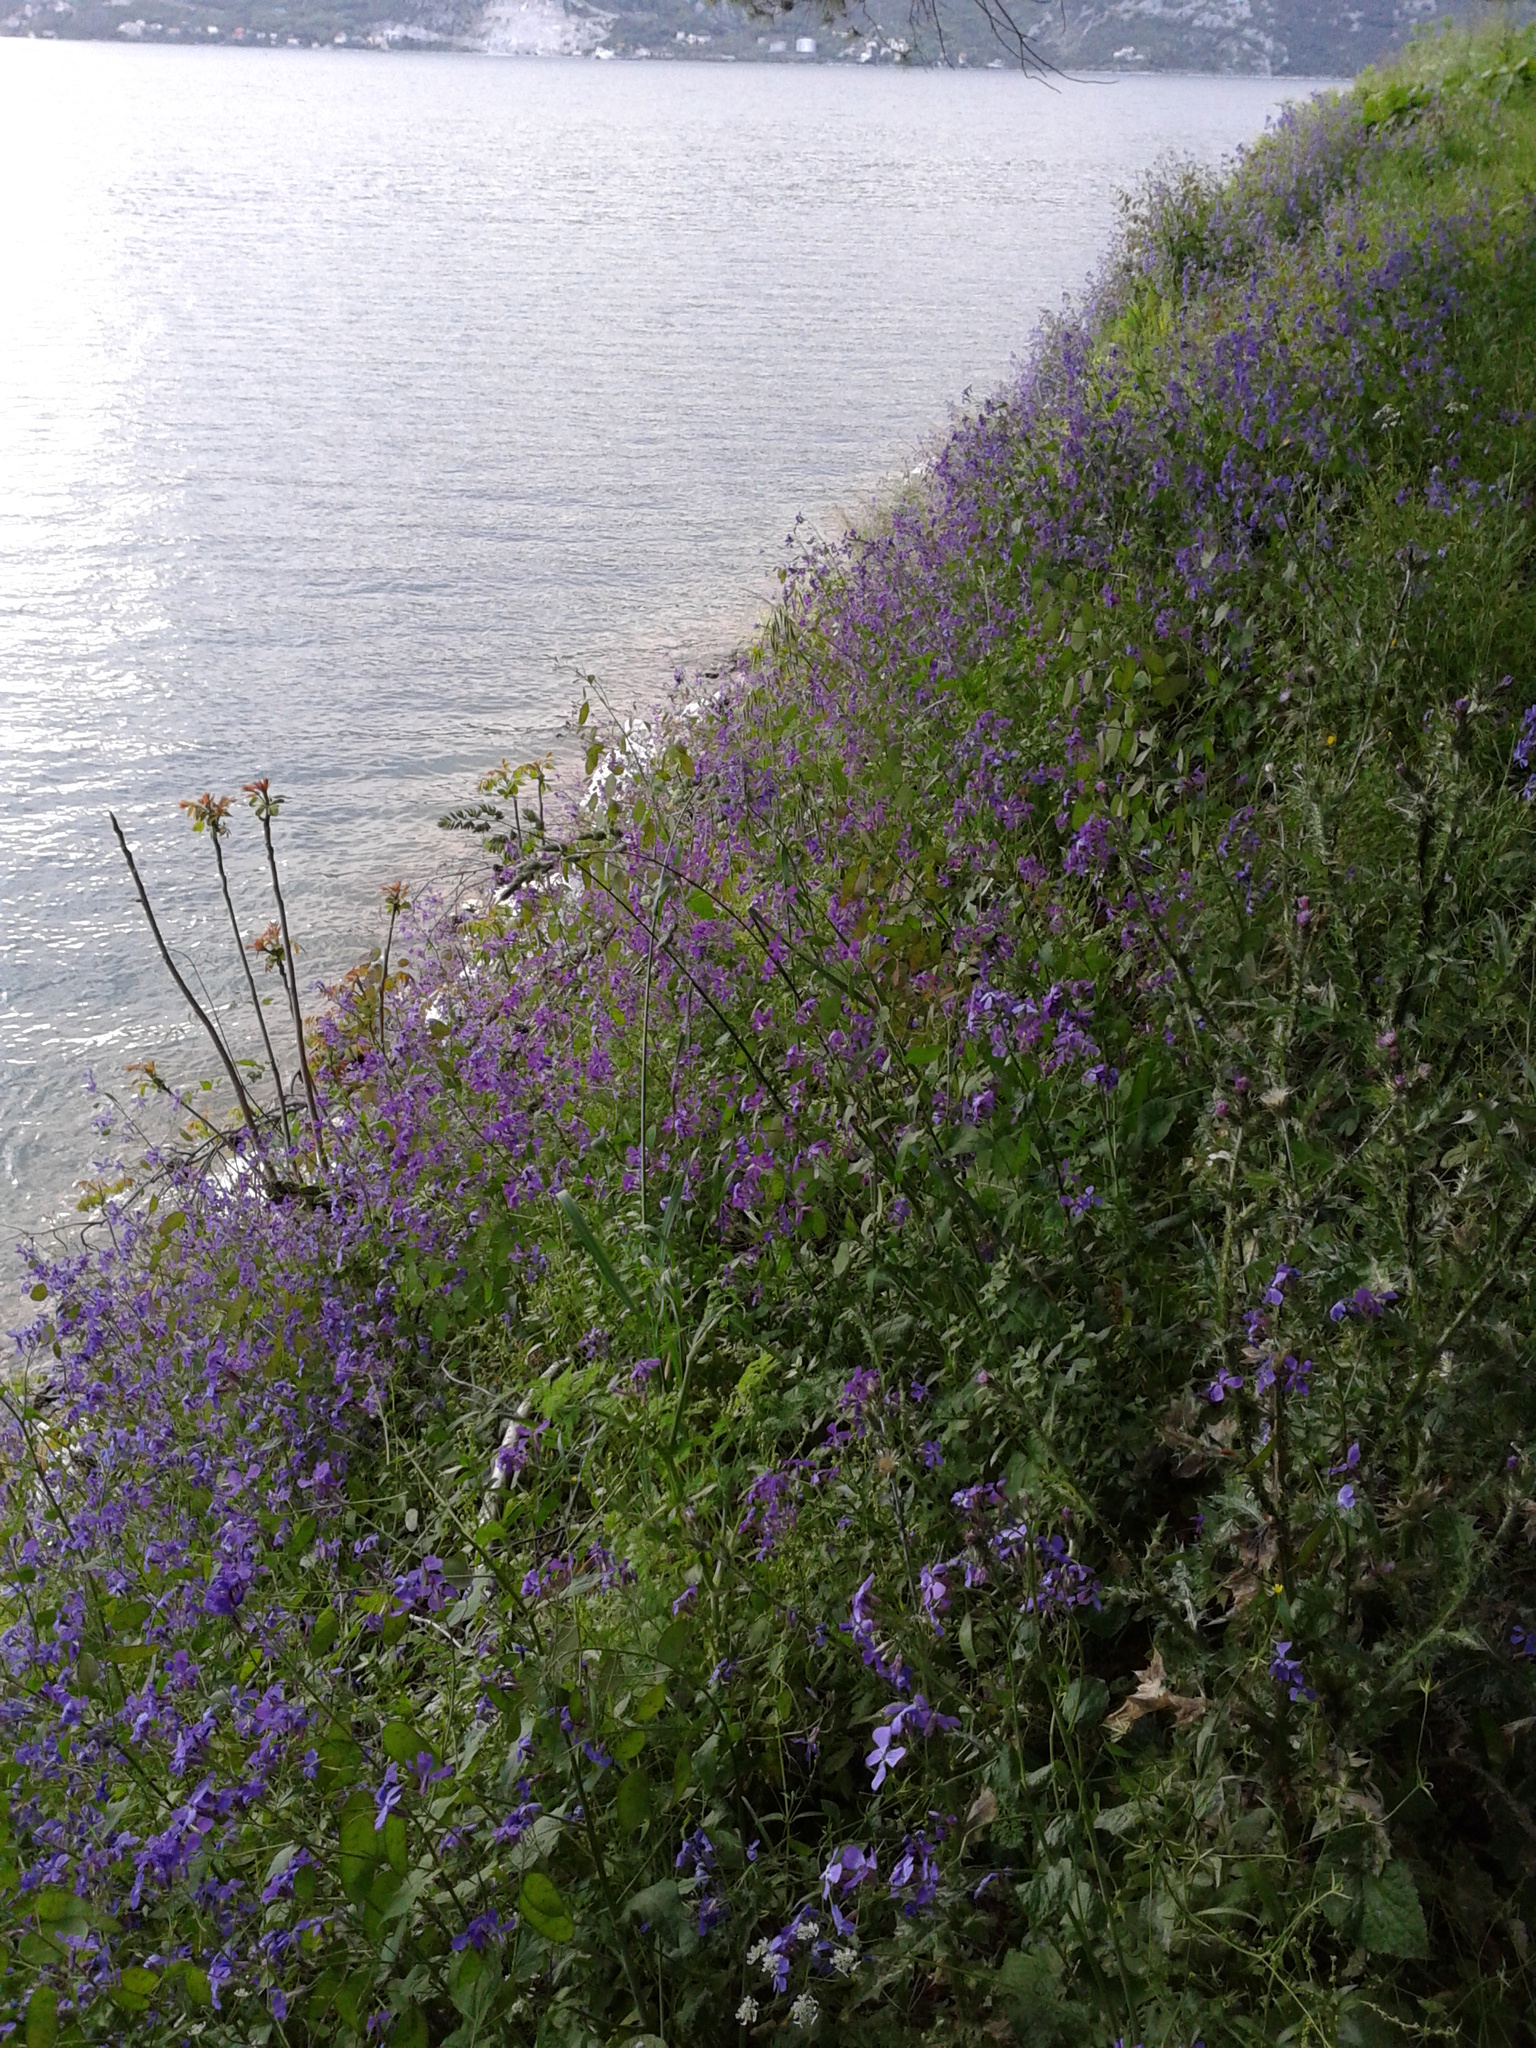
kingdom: Plantae
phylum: Tracheophyta
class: Magnoliopsida
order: Brassicales
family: Brassicaceae
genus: Lunaria
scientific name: Lunaria annua
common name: Honesty
